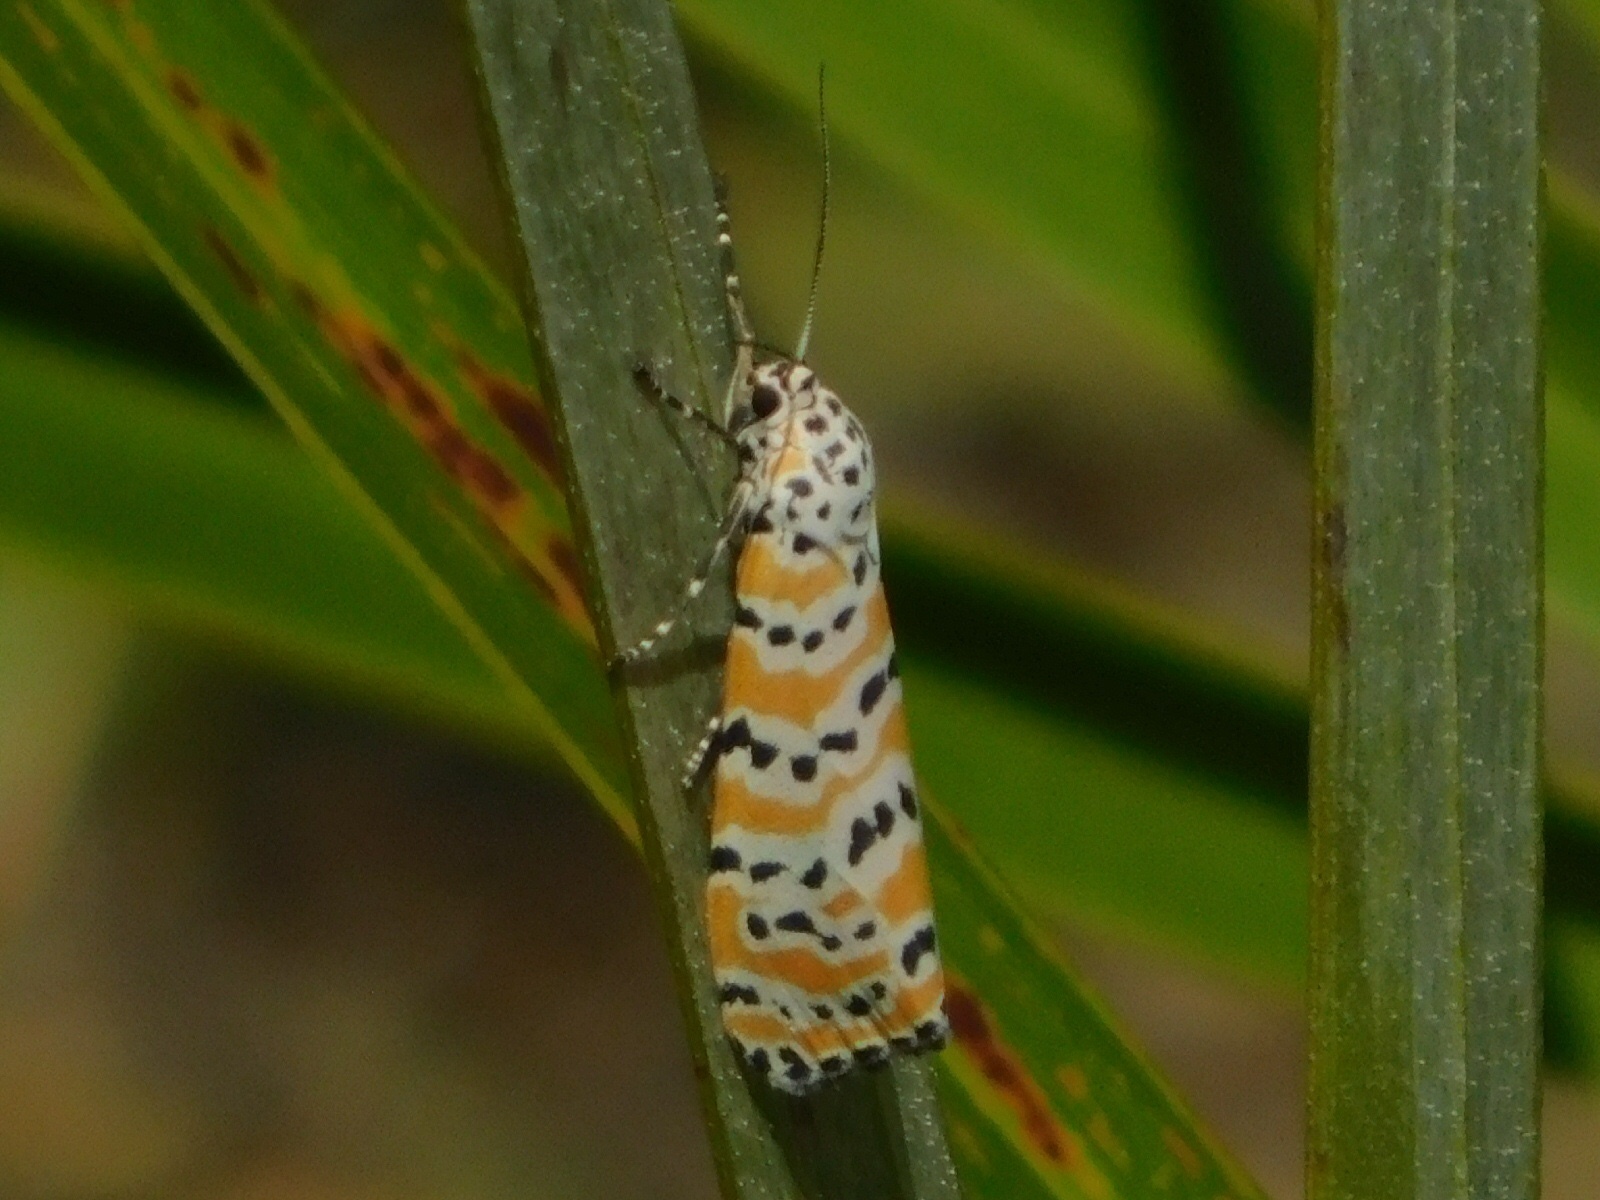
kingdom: Animalia
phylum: Arthropoda
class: Insecta
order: Lepidoptera
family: Erebidae
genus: Utetheisa
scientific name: Utetheisa ornatrix
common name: Beautiful utetheisa
